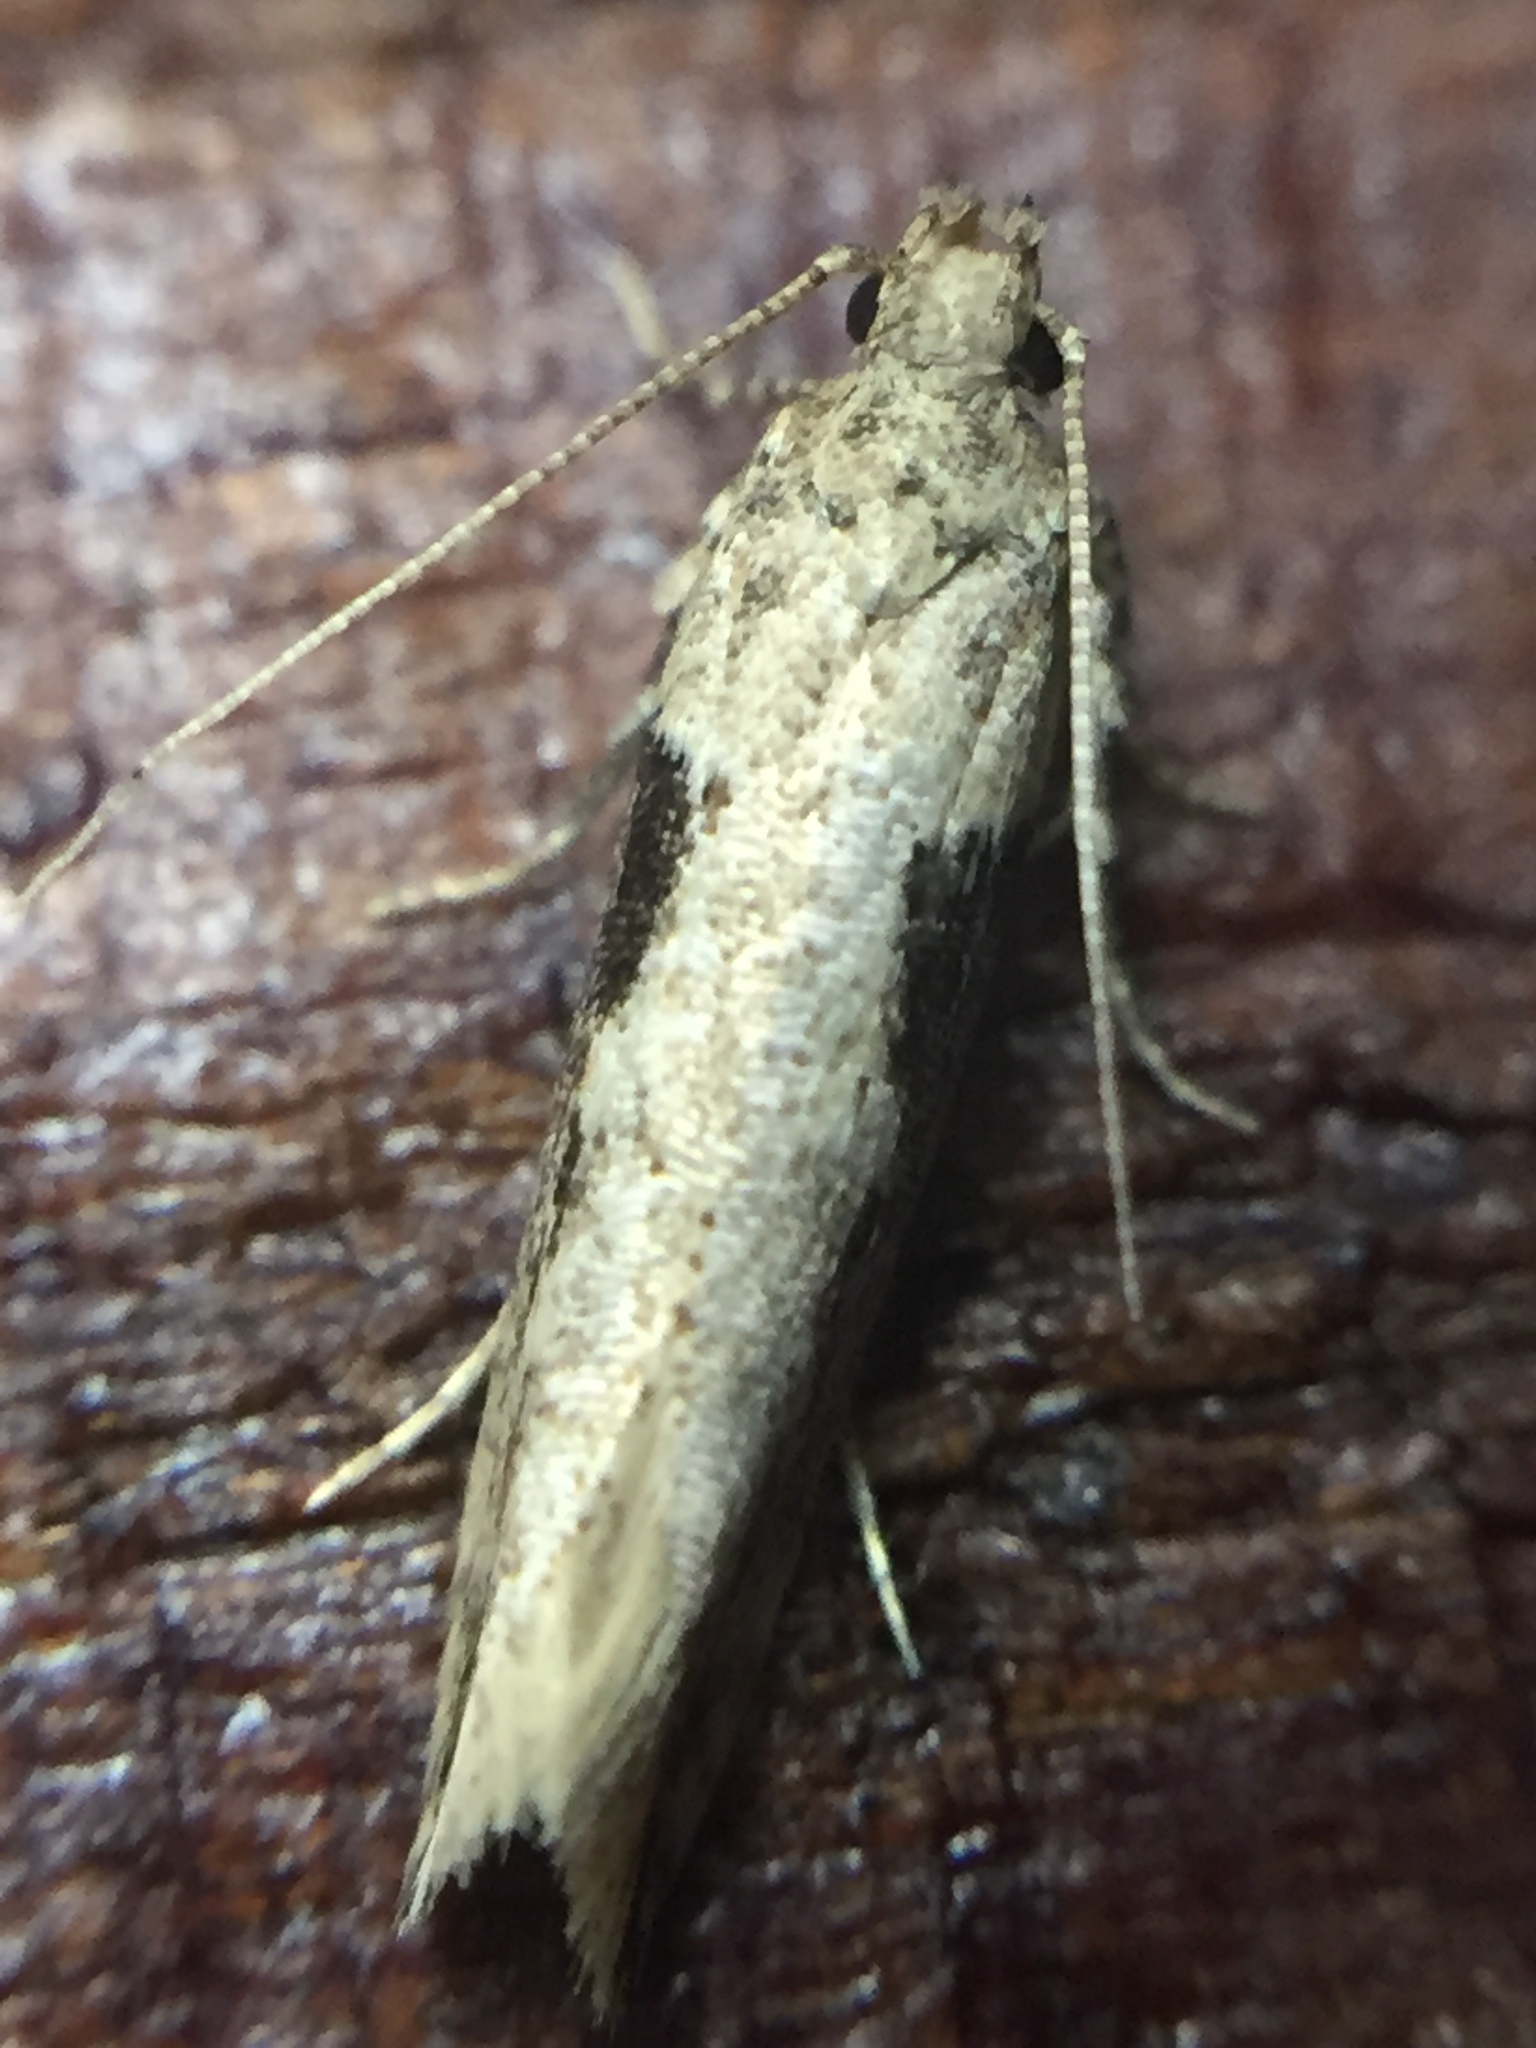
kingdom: Animalia
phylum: Arthropoda
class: Insecta
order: Lepidoptera
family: Gelechiidae
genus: Symmetrischema
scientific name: Symmetrischema tangolias
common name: Moth
